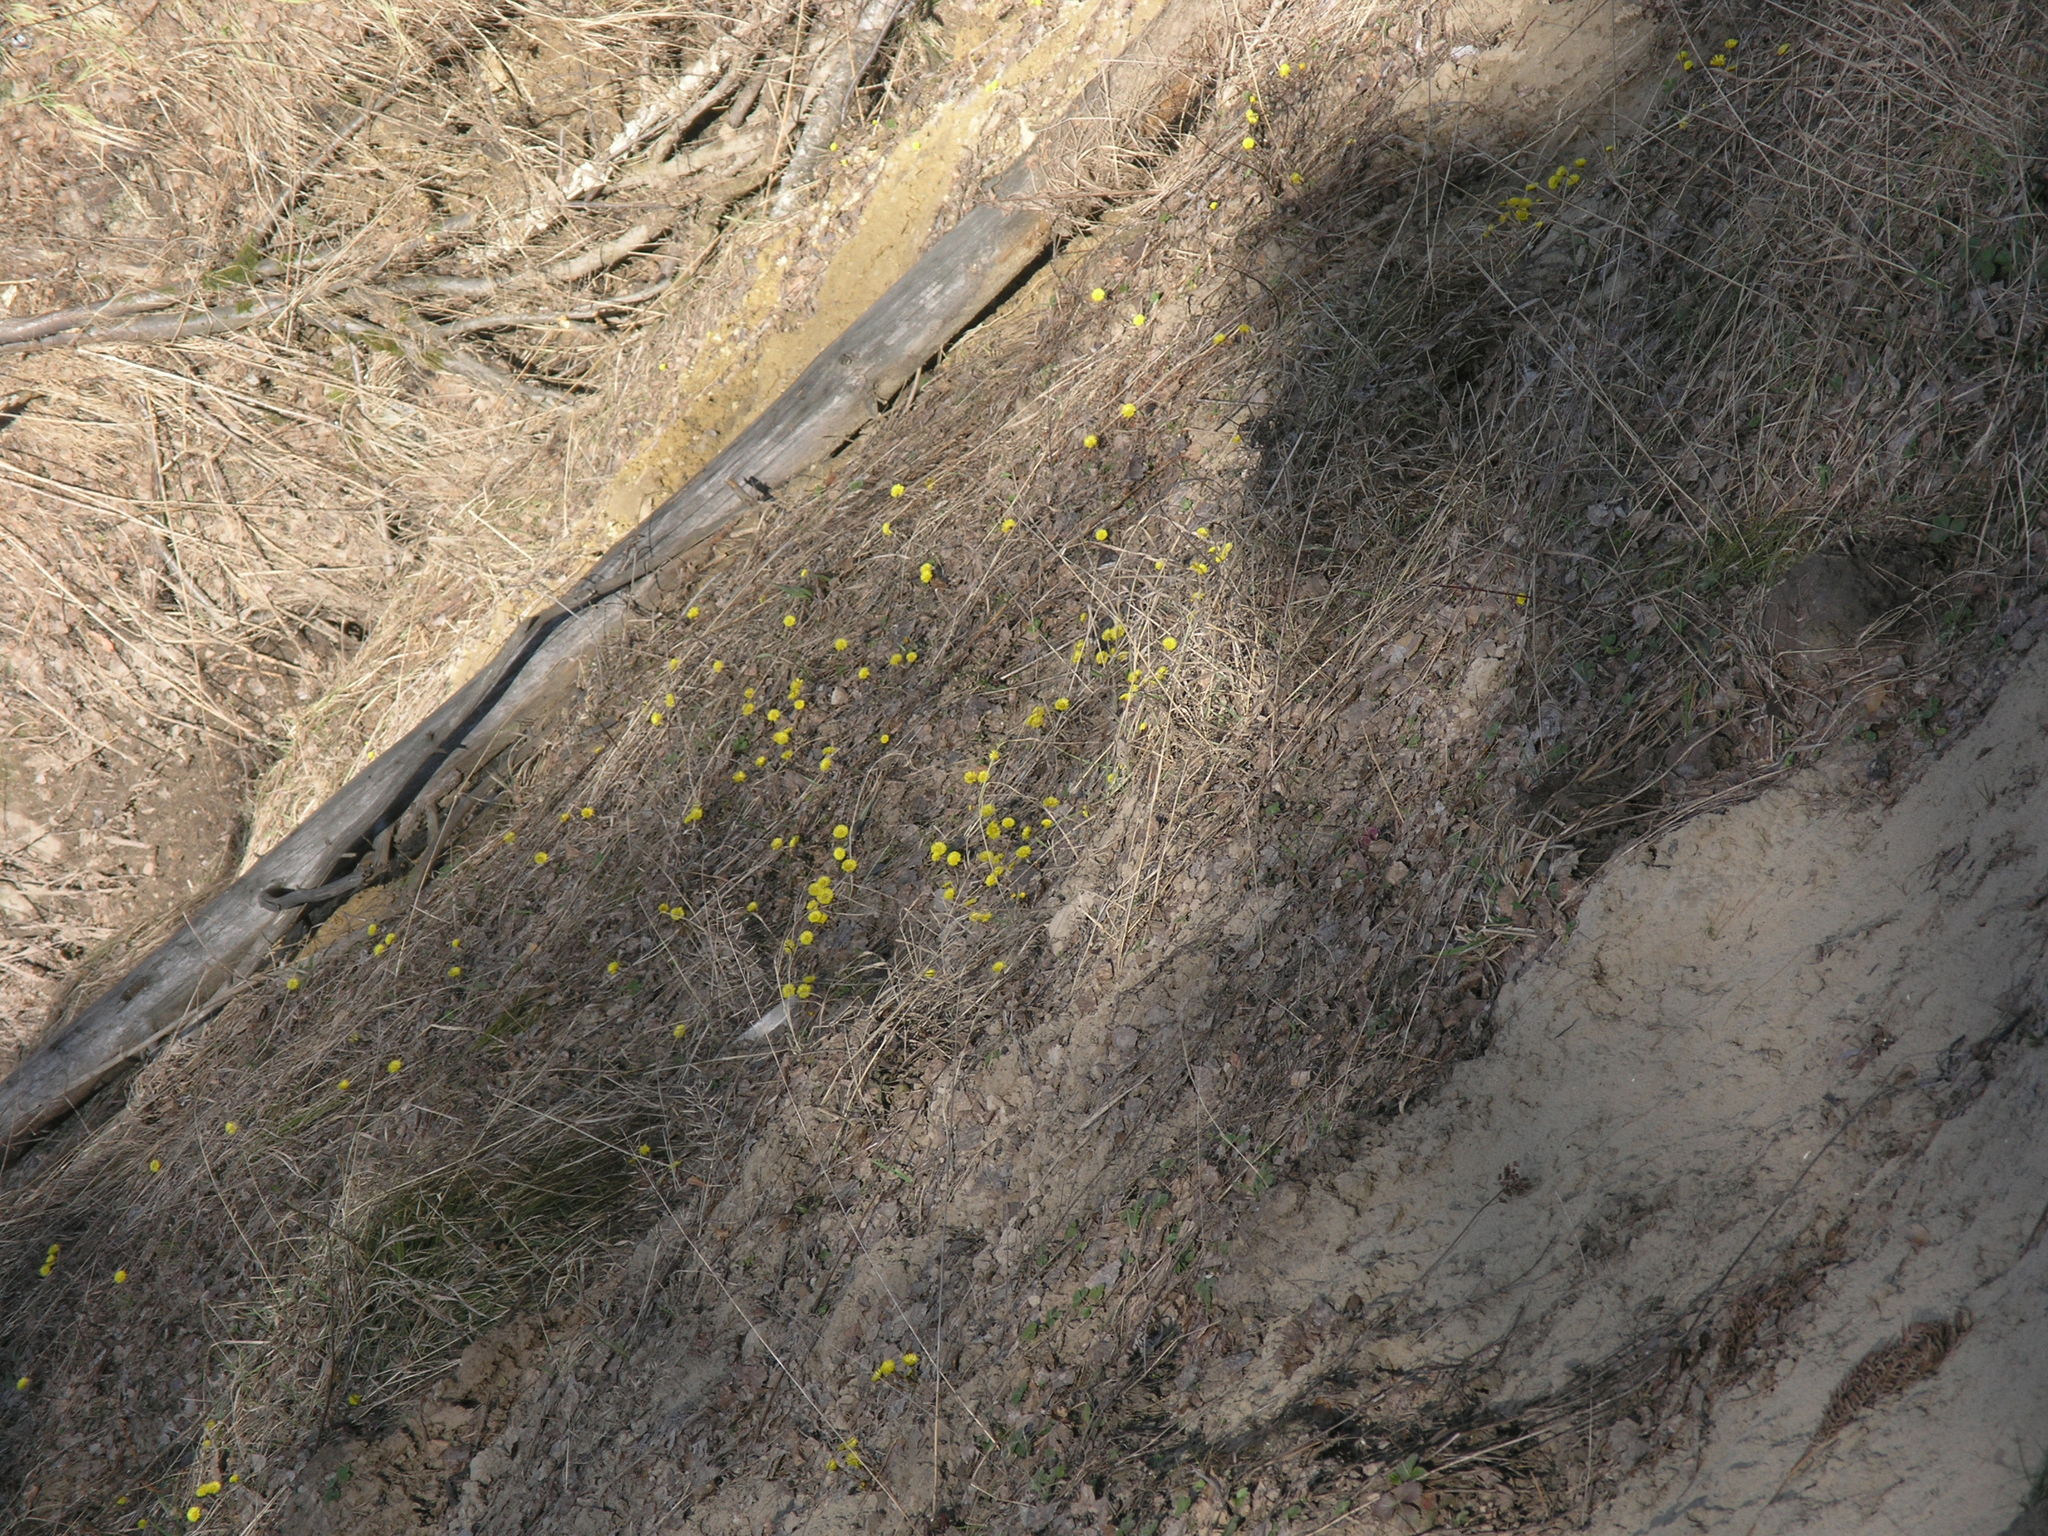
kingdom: Plantae
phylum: Tracheophyta
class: Magnoliopsida
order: Asterales
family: Asteraceae
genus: Tussilago
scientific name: Tussilago farfara
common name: Coltsfoot
